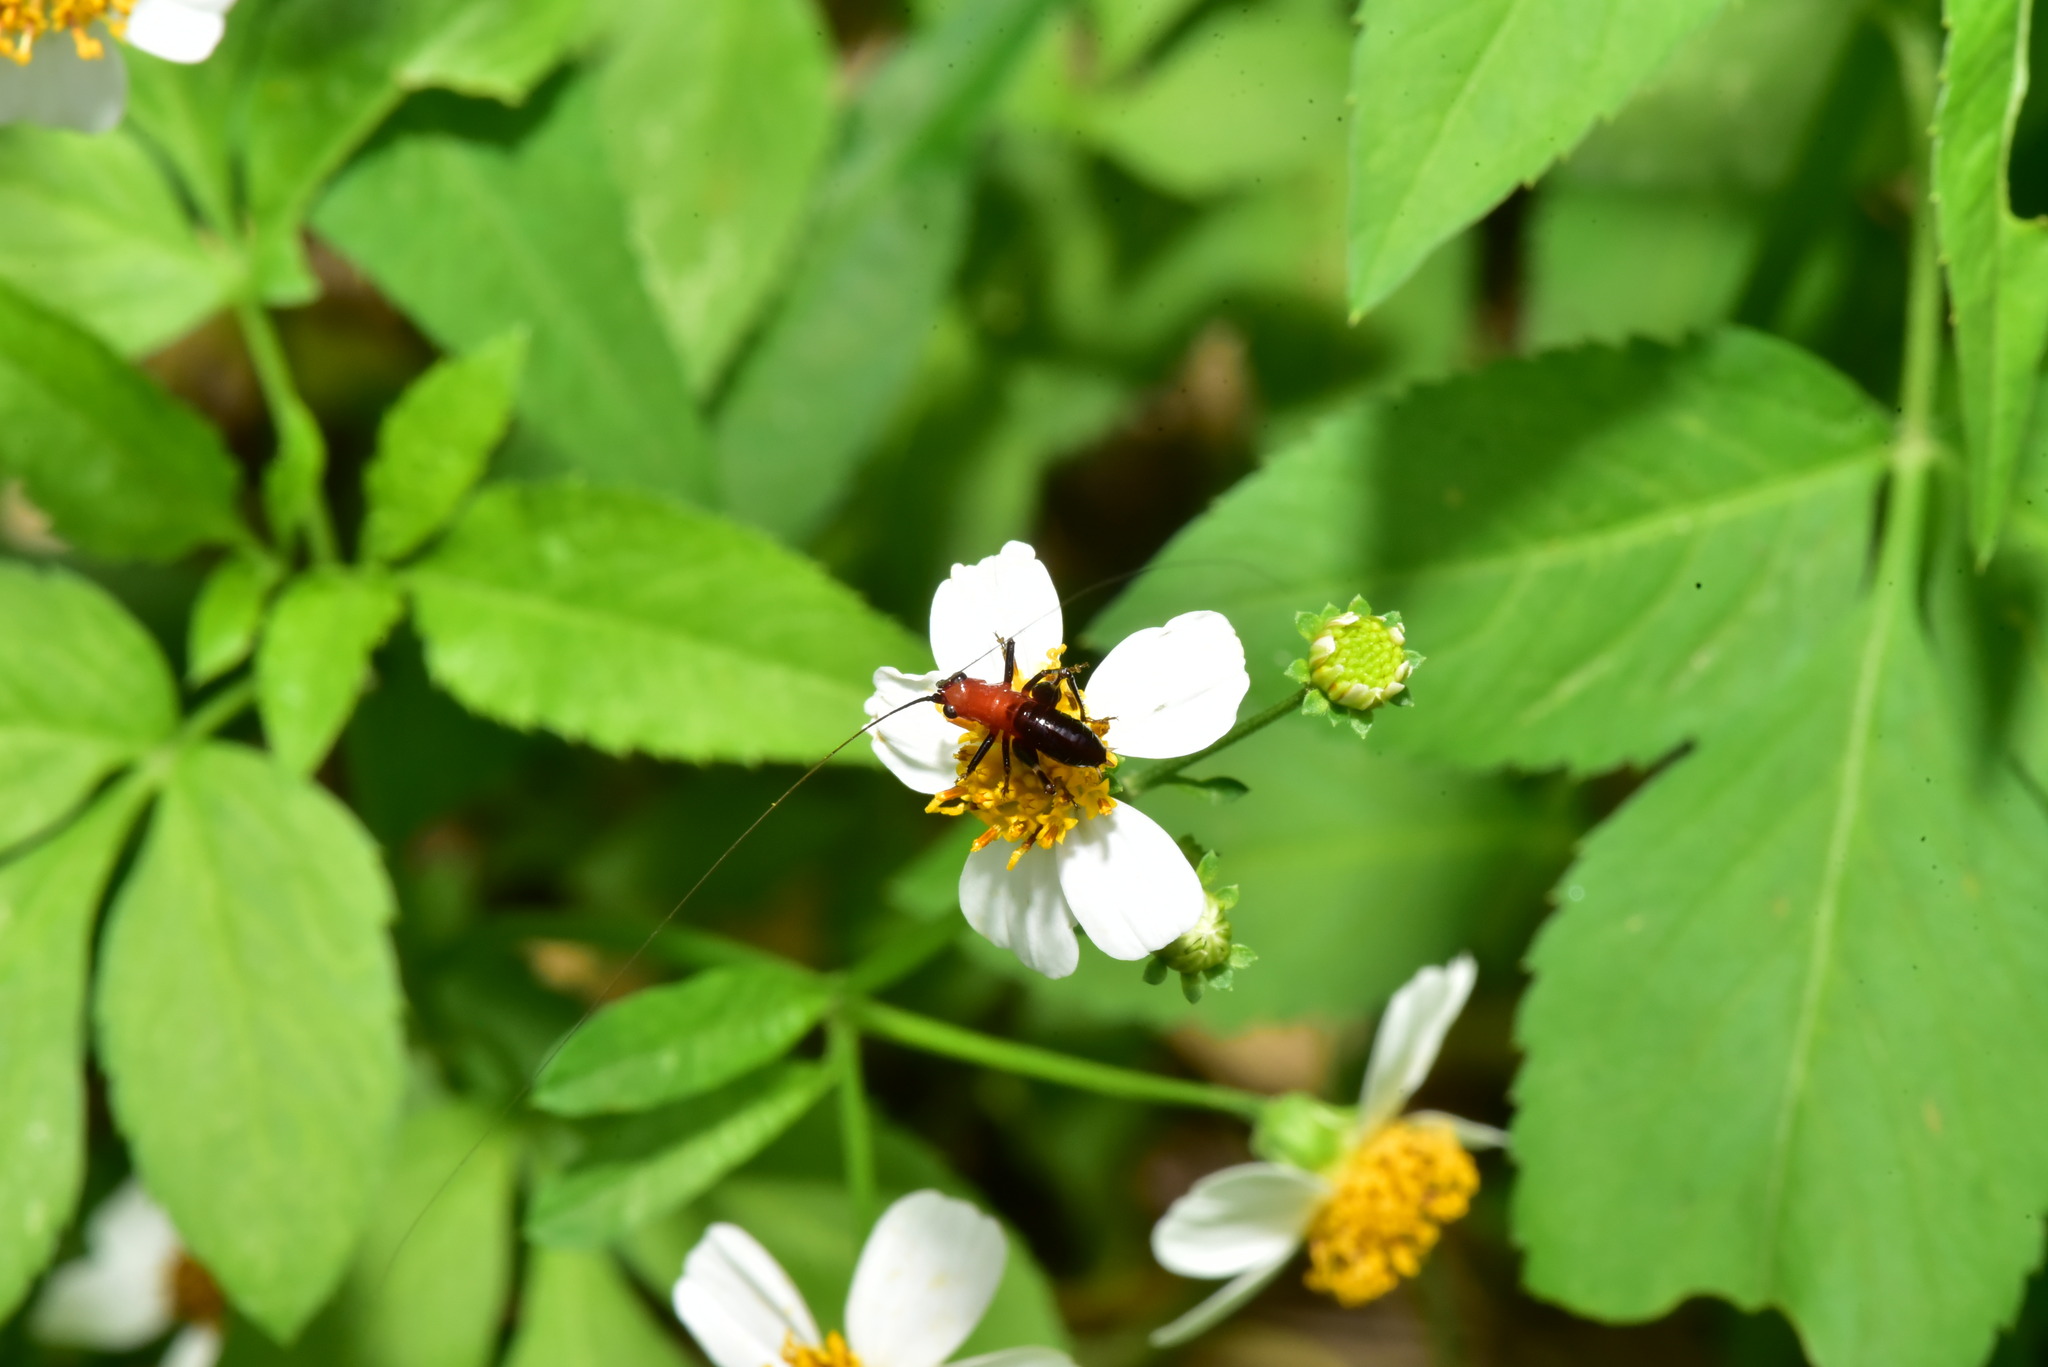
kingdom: Animalia
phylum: Arthropoda
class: Insecta
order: Orthoptera
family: Tettigoniidae
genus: Conocephalus
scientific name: Conocephalus melaenus
